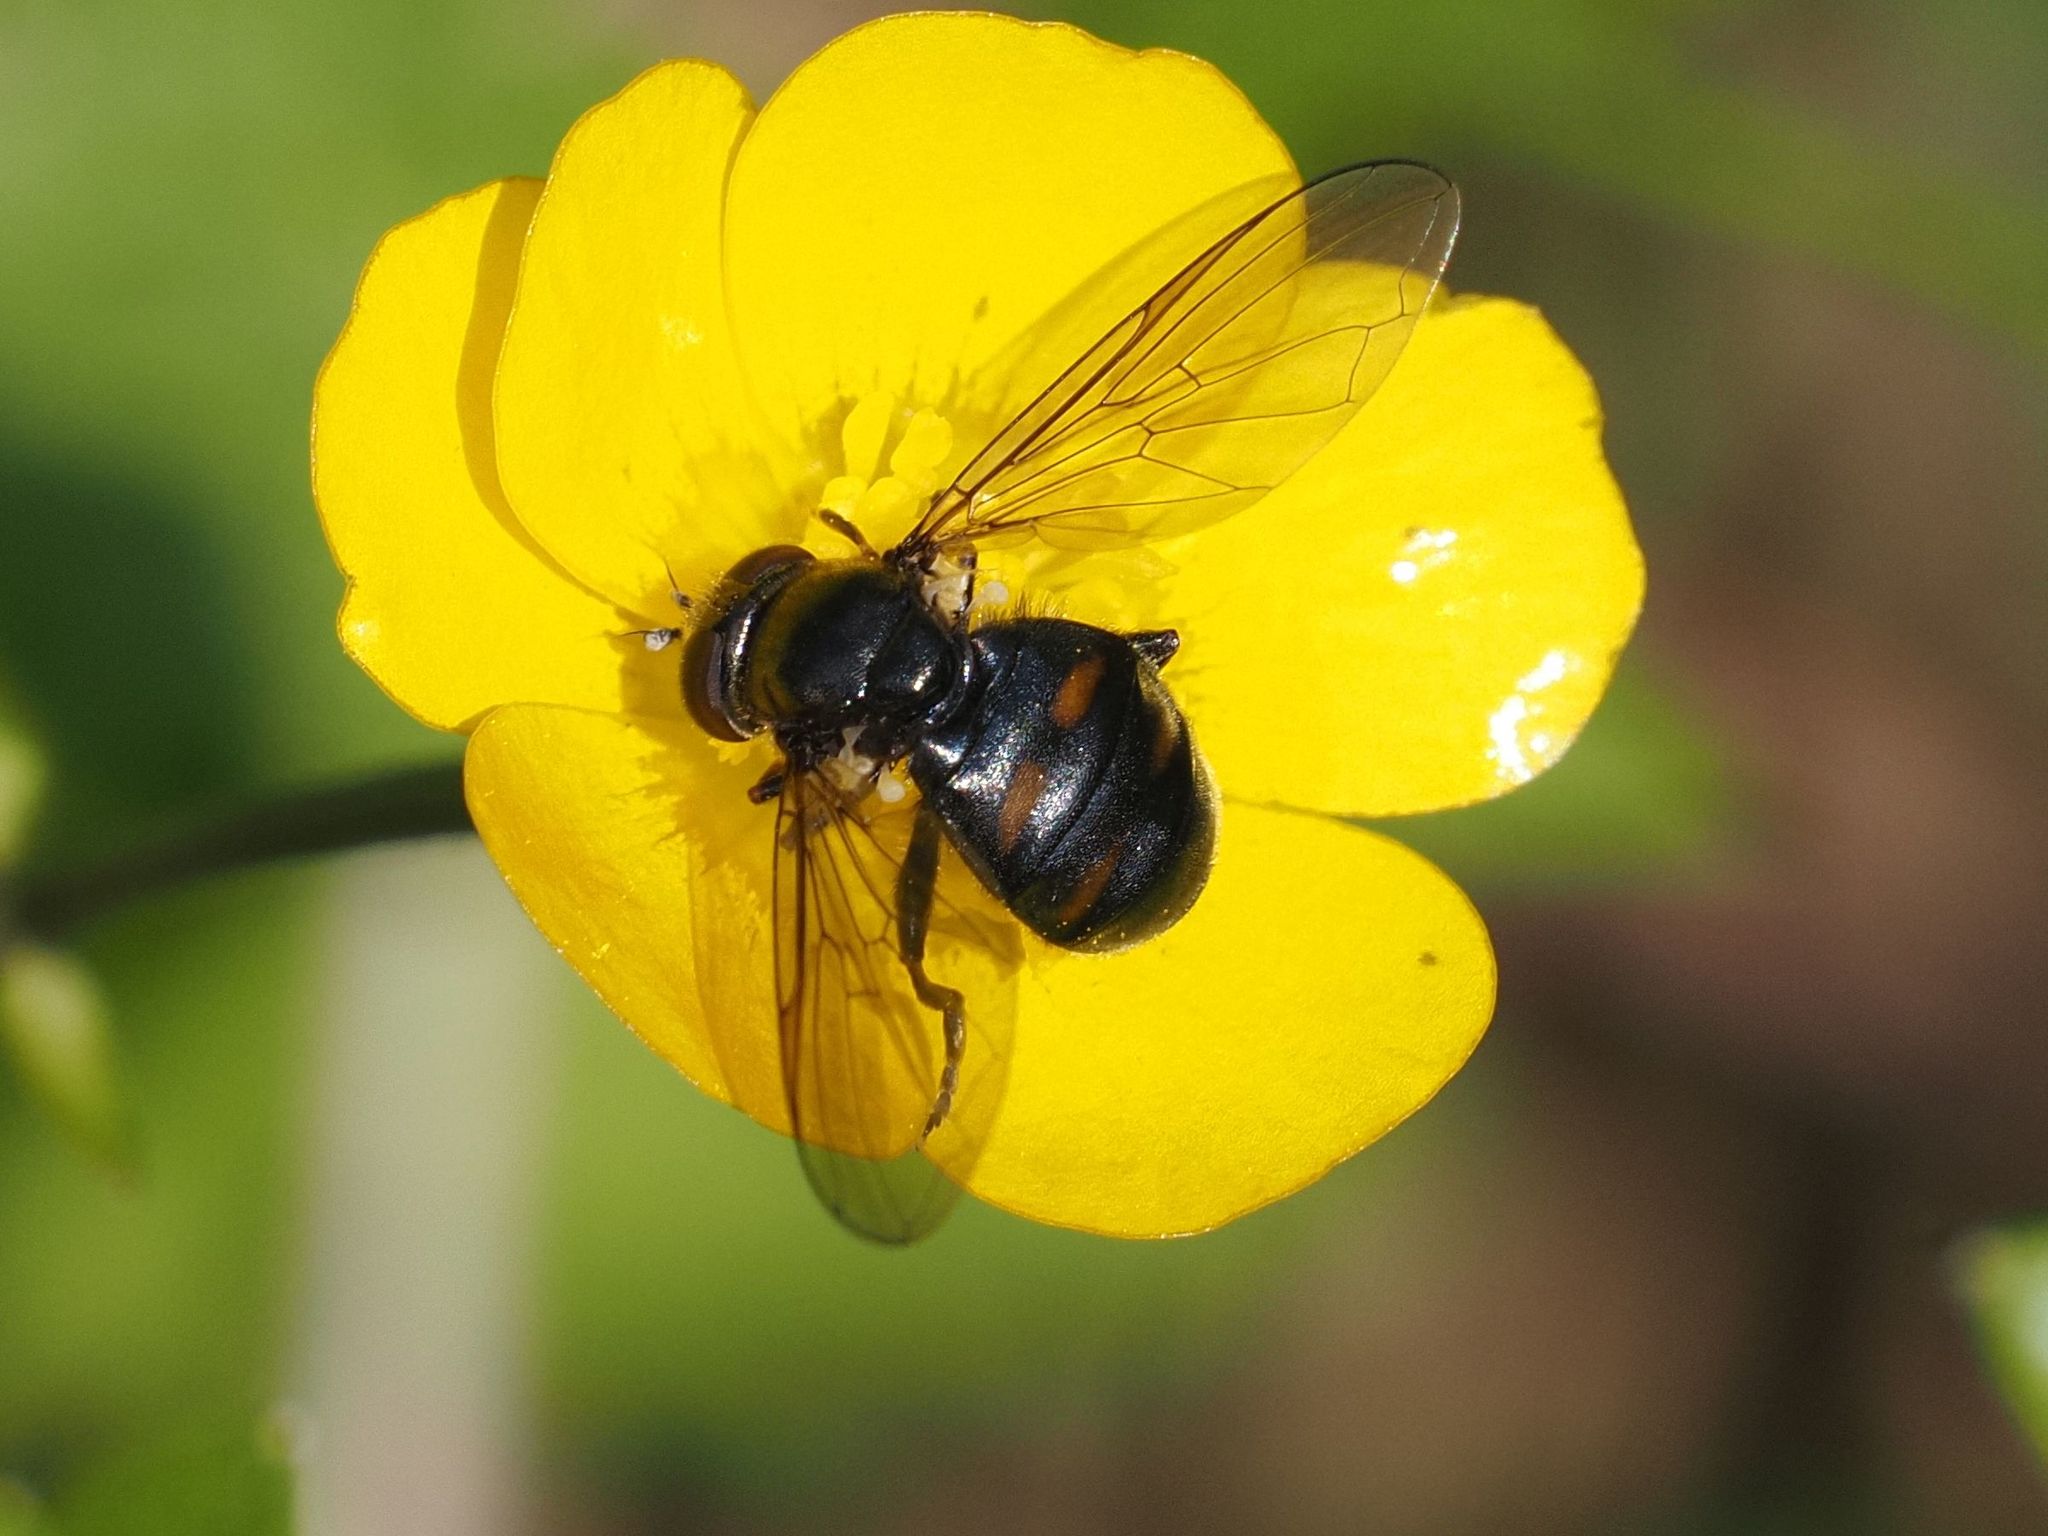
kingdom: Animalia
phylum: Arthropoda
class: Insecta
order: Diptera
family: Syrphidae
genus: Pipiza
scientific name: Pipiza quadrimaculata
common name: Four-spotted pipiza
